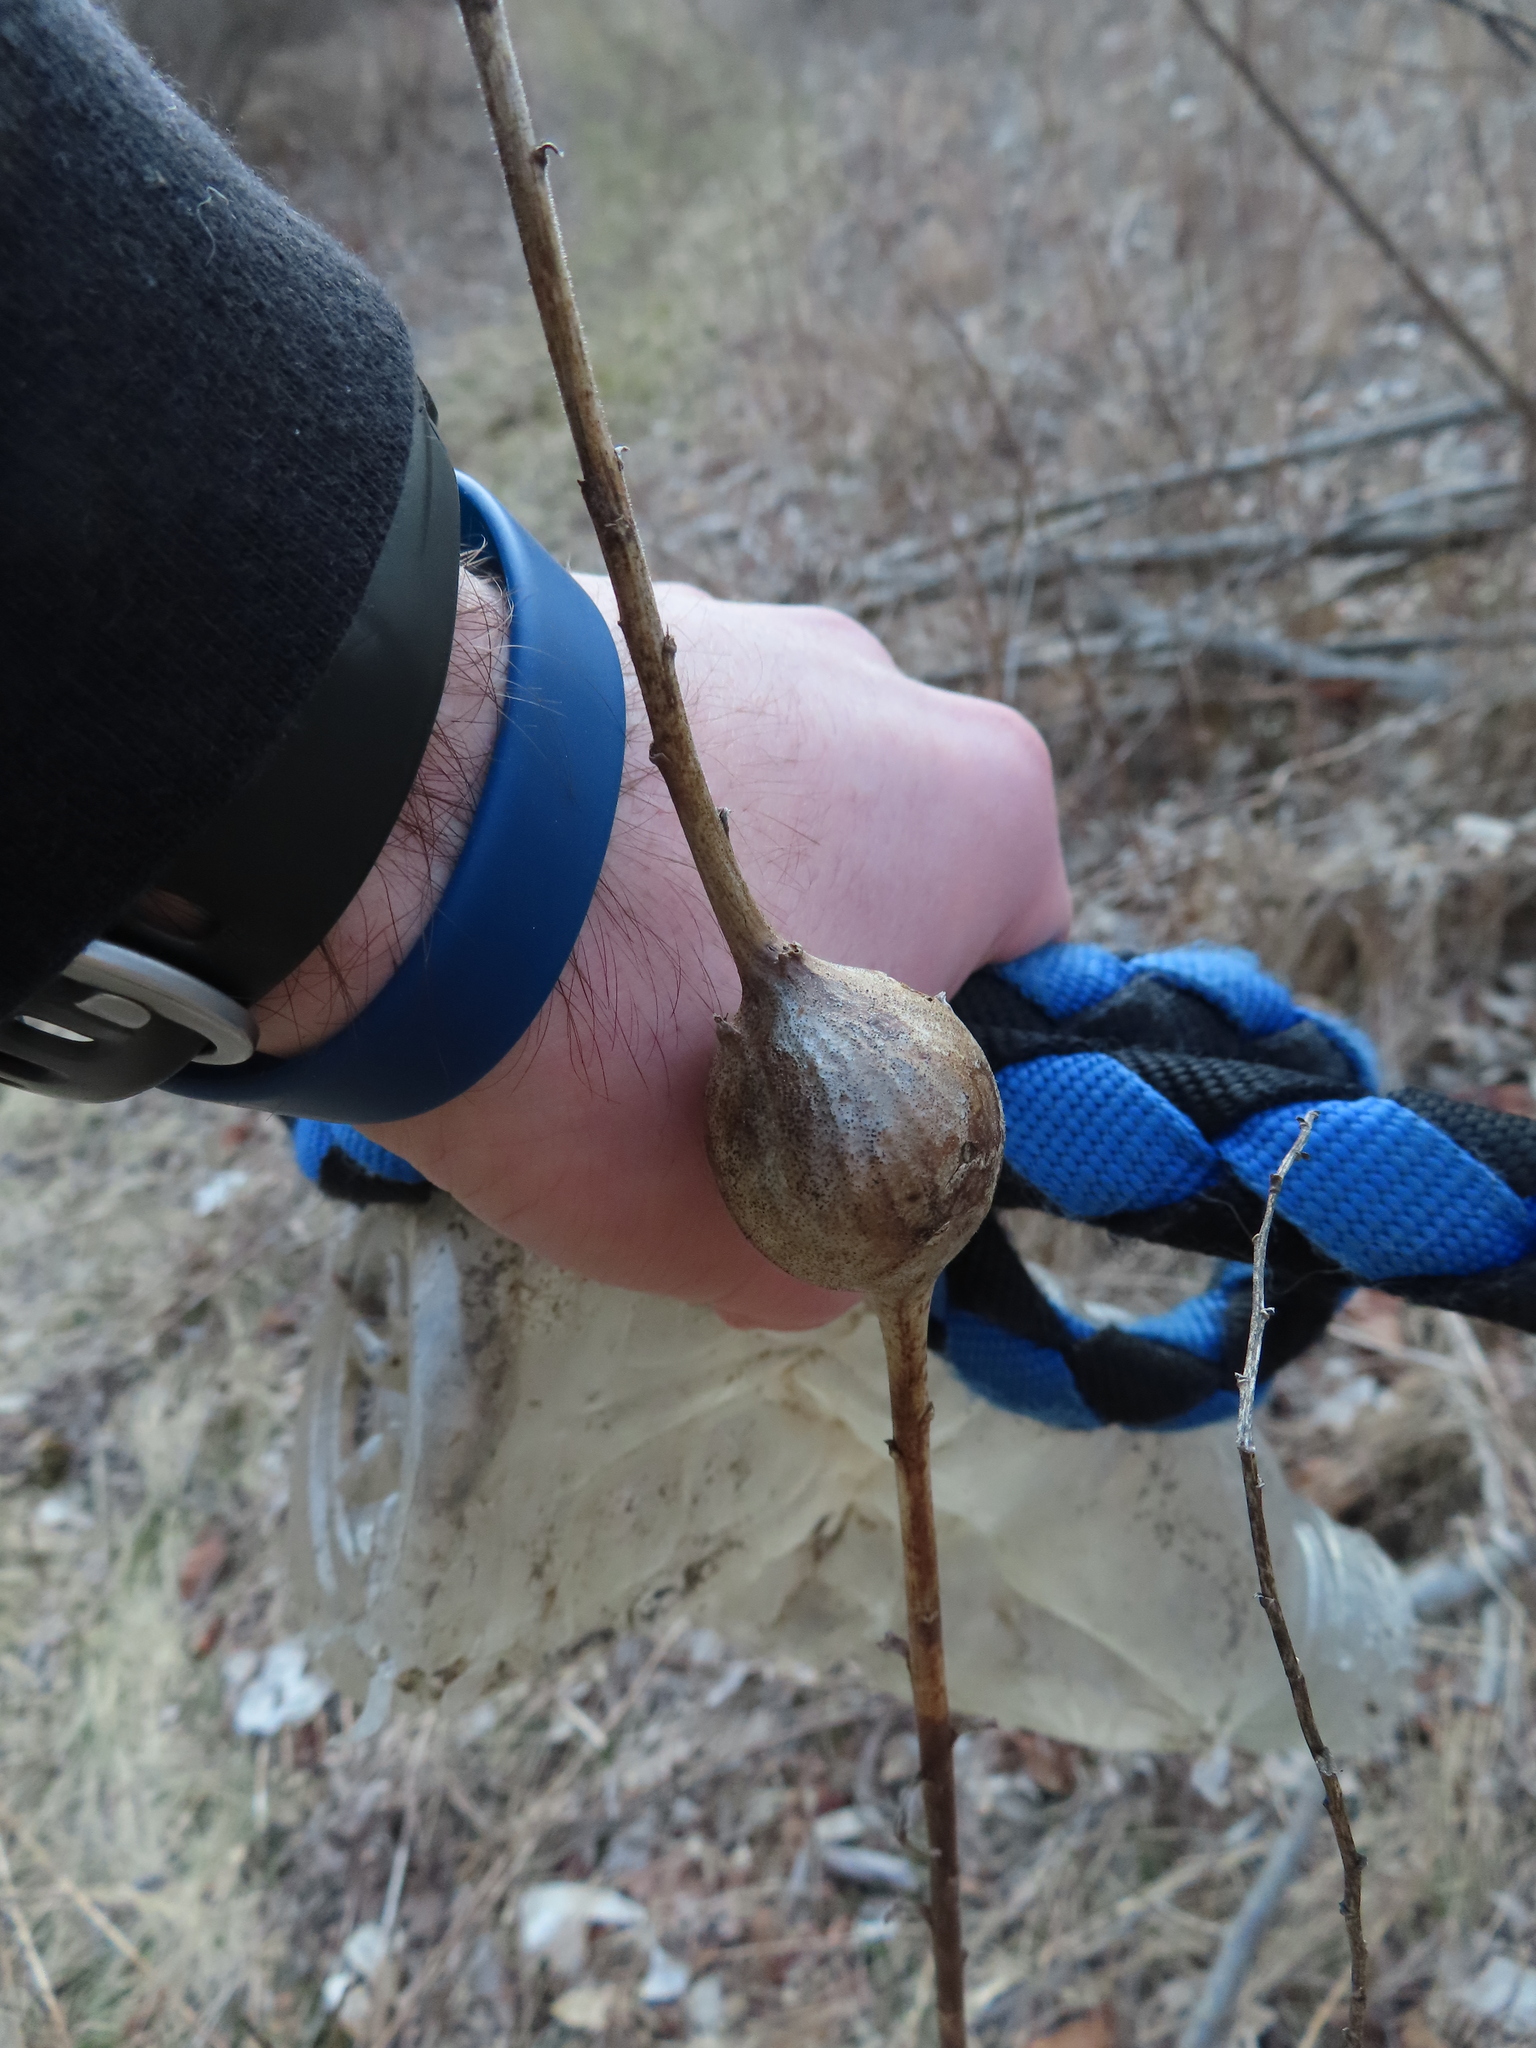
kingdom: Animalia
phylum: Arthropoda
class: Insecta
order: Diptera
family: Tephritidae
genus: Eurosta
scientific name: Eurosta solidaginis
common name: Goldenrod gall fly
